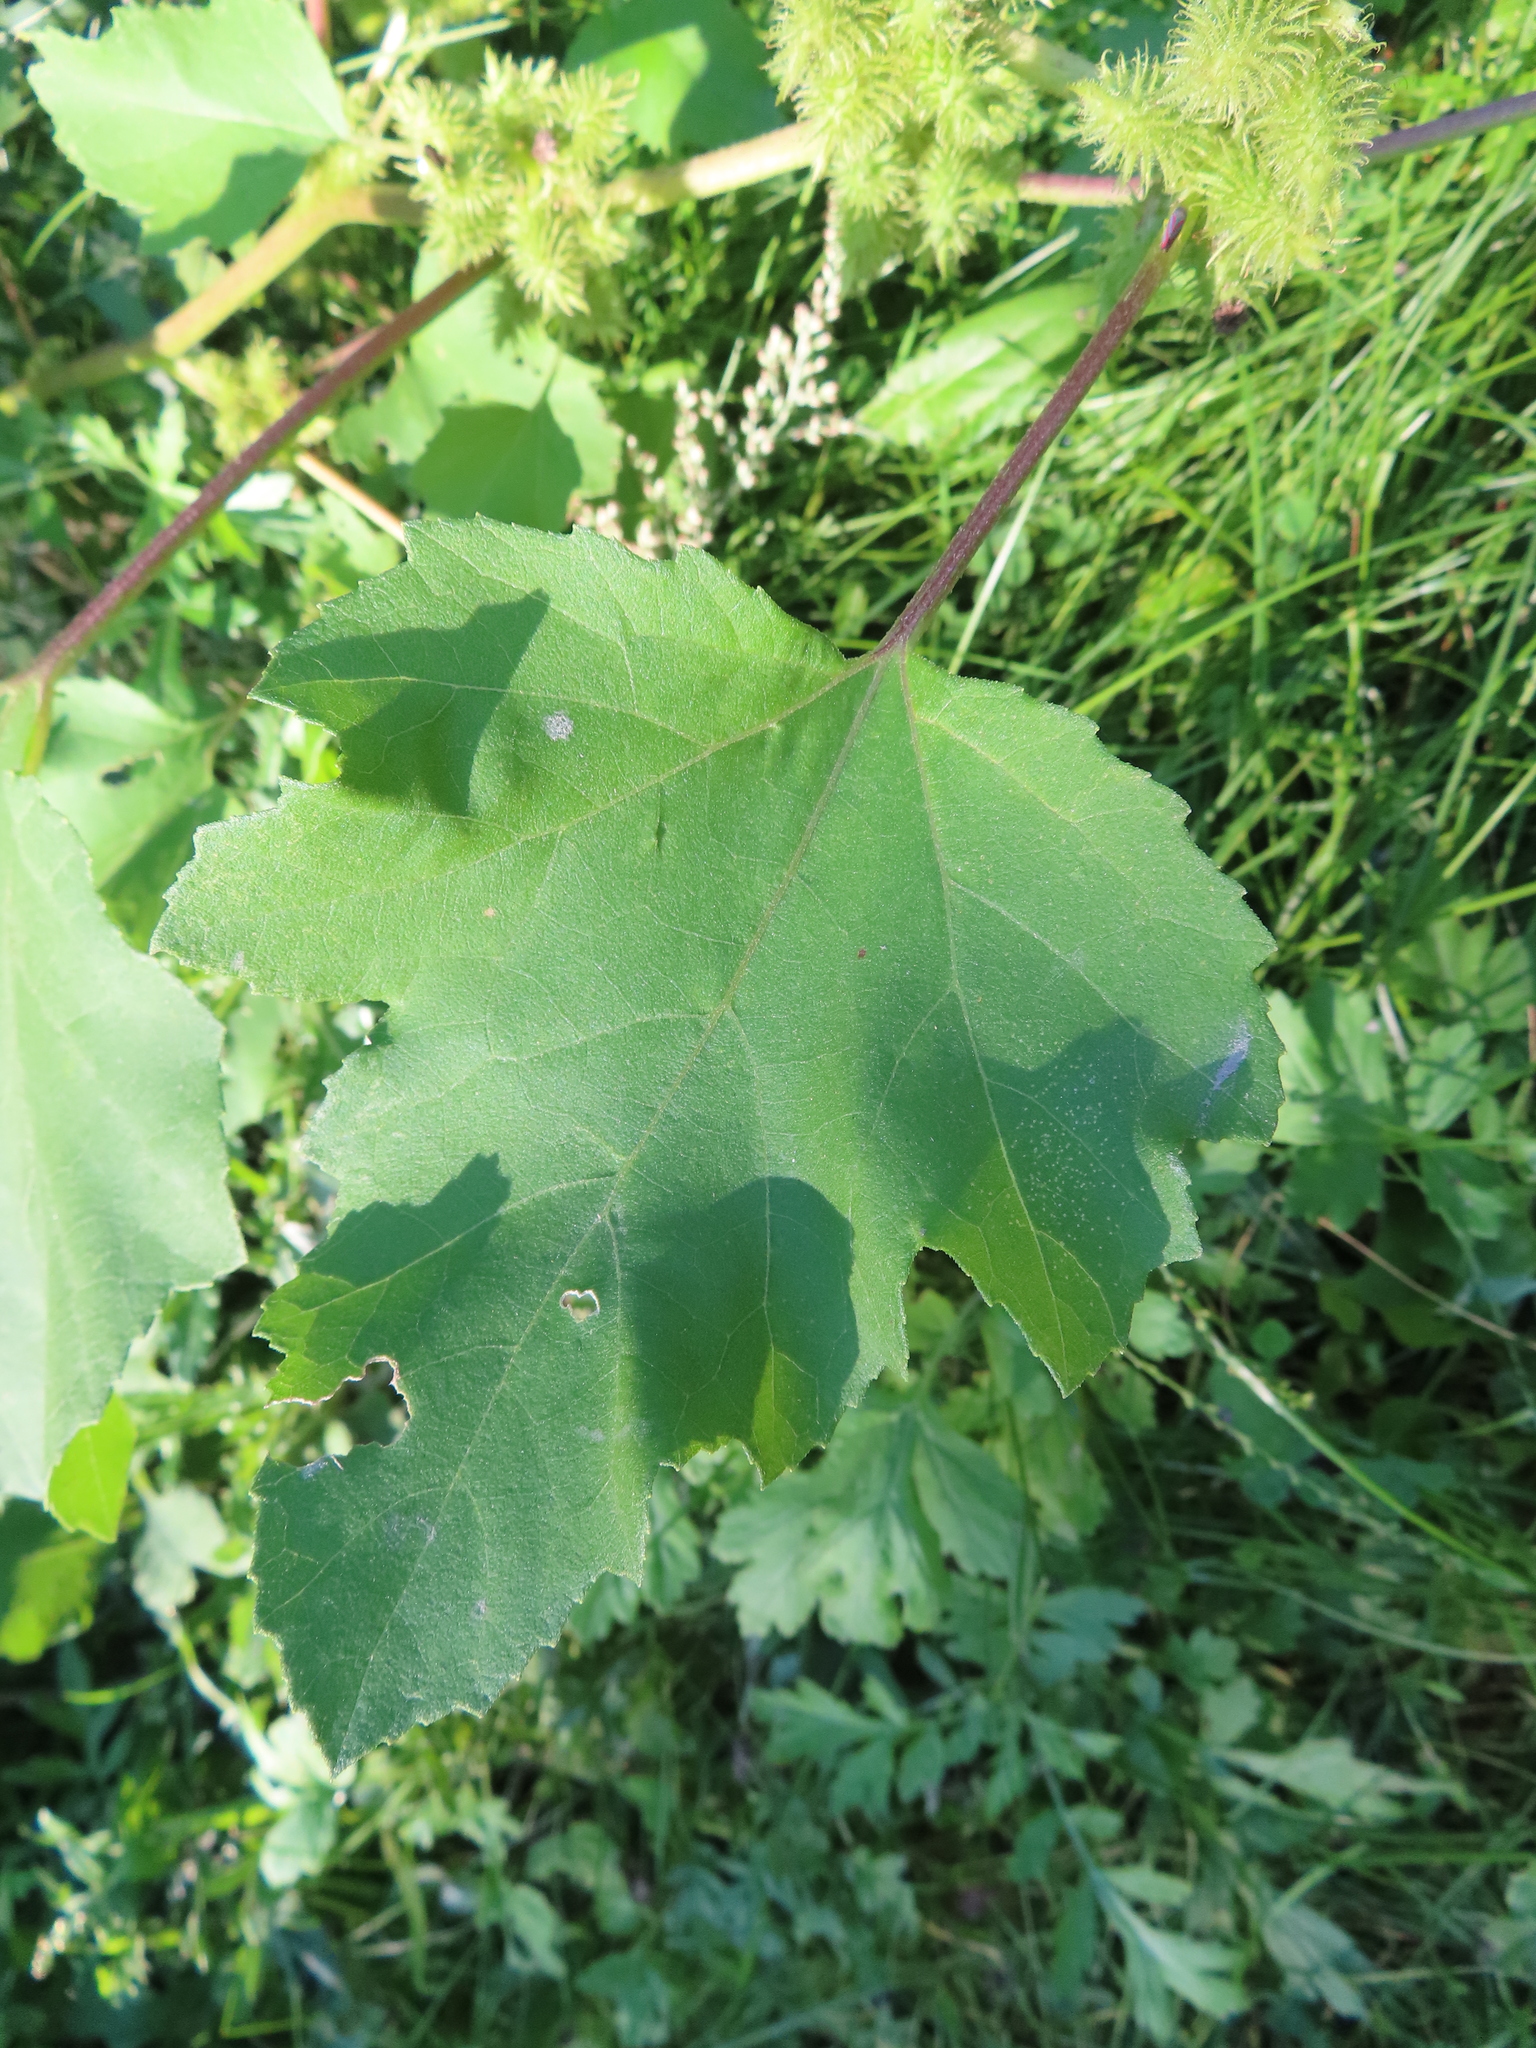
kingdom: Plantae
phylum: Tracheophyta
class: Magnoliopsida
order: Asterales
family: Asteraceae
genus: Xanthium
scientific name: Xanthium strumarium
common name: Rough cocklebur
